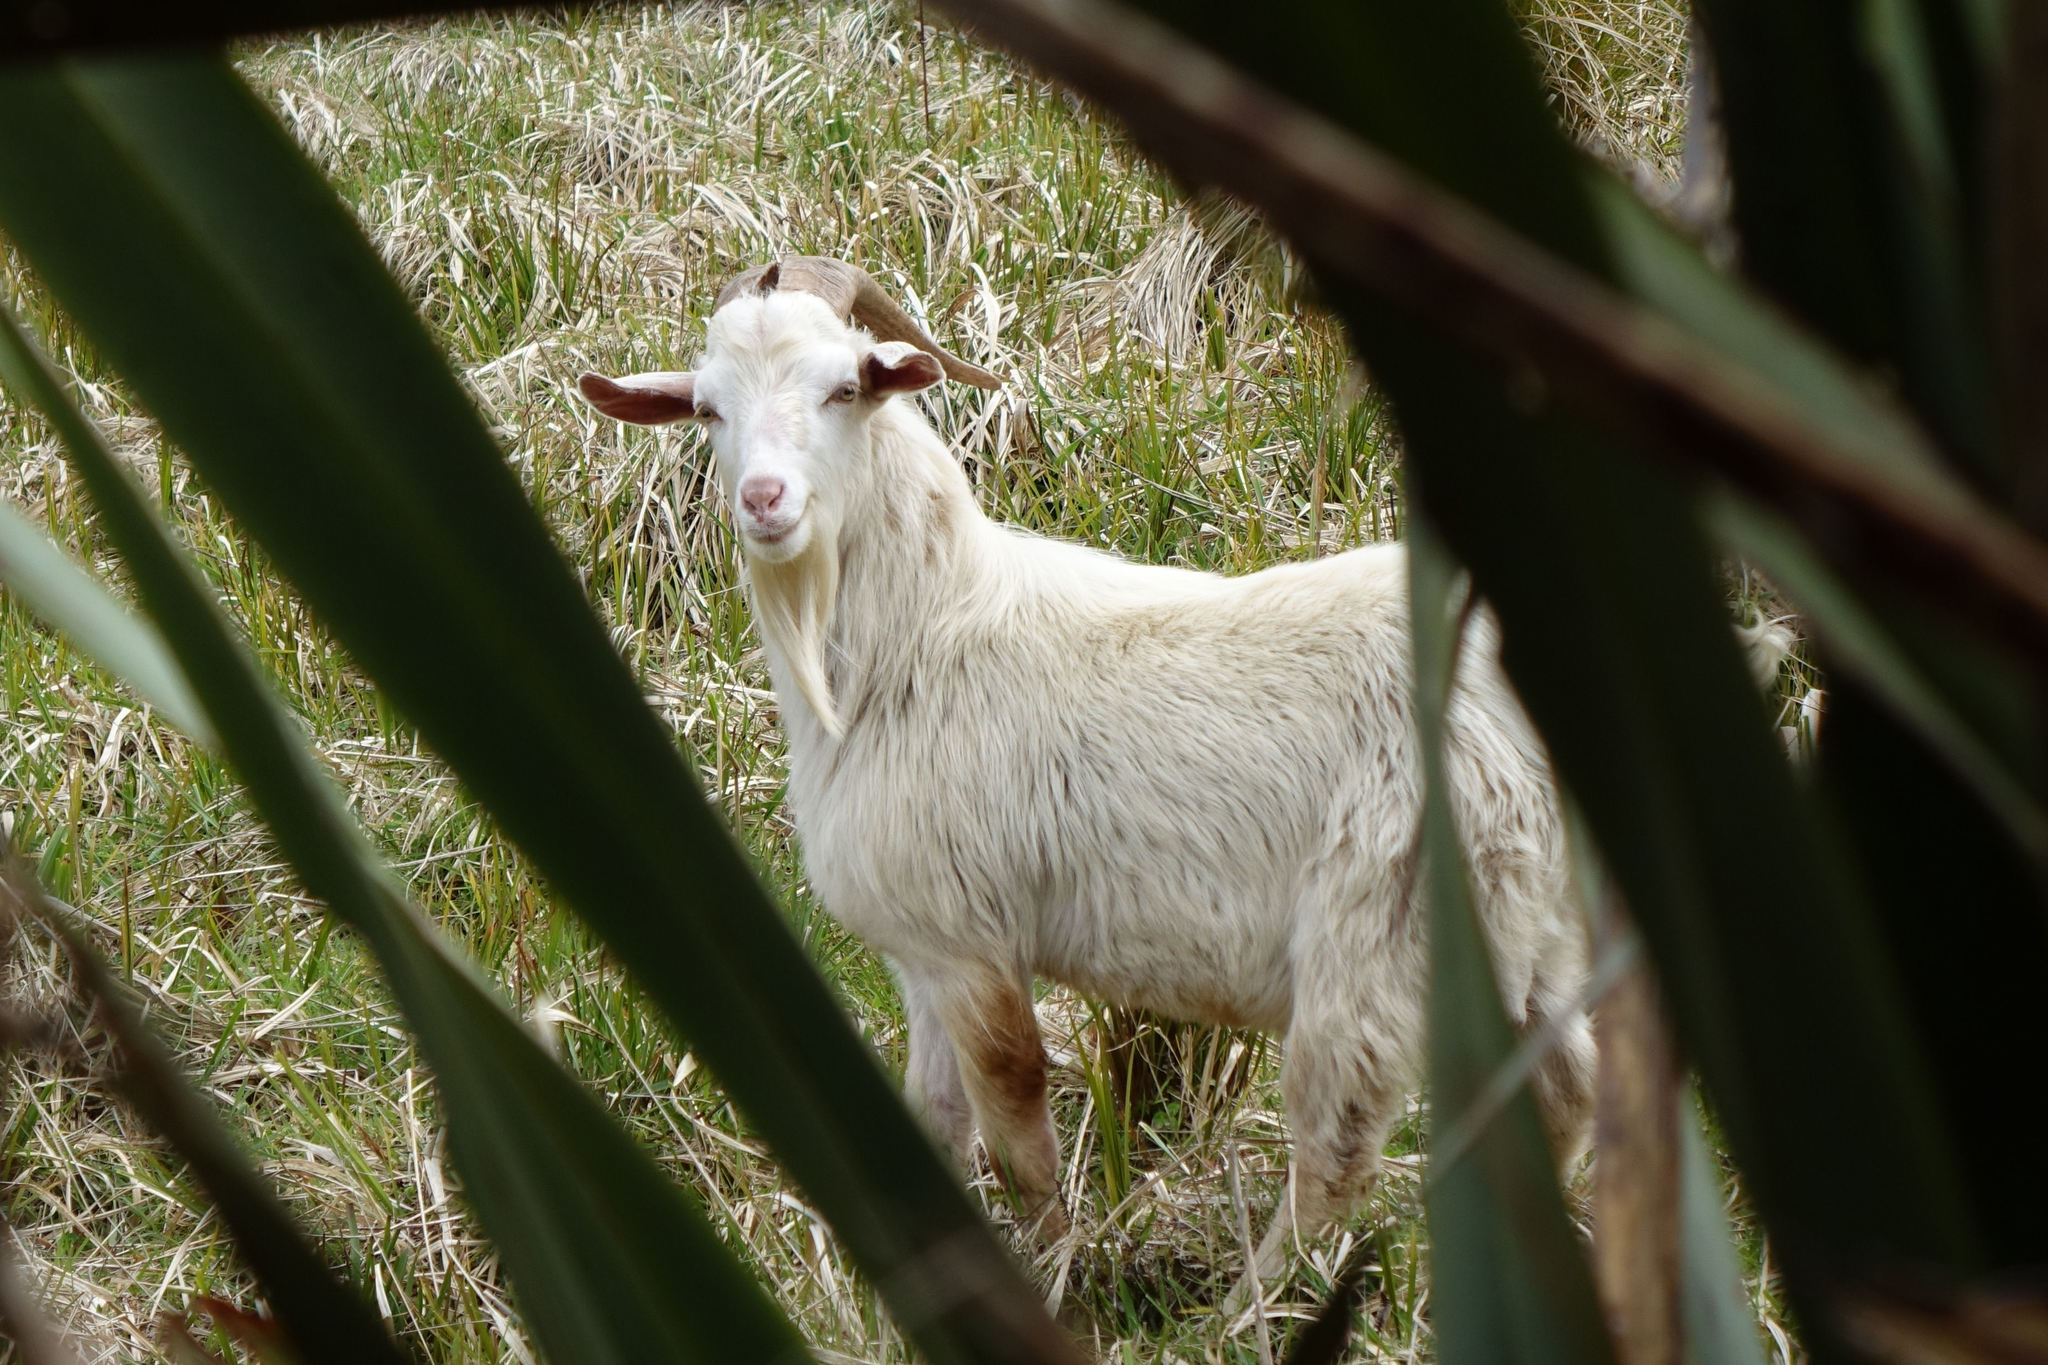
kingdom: Animalia
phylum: Chordata
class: Mammalia
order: Artiodactyla
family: Bovidae
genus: Capra
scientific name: Capra hircus
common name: Domestic goat
